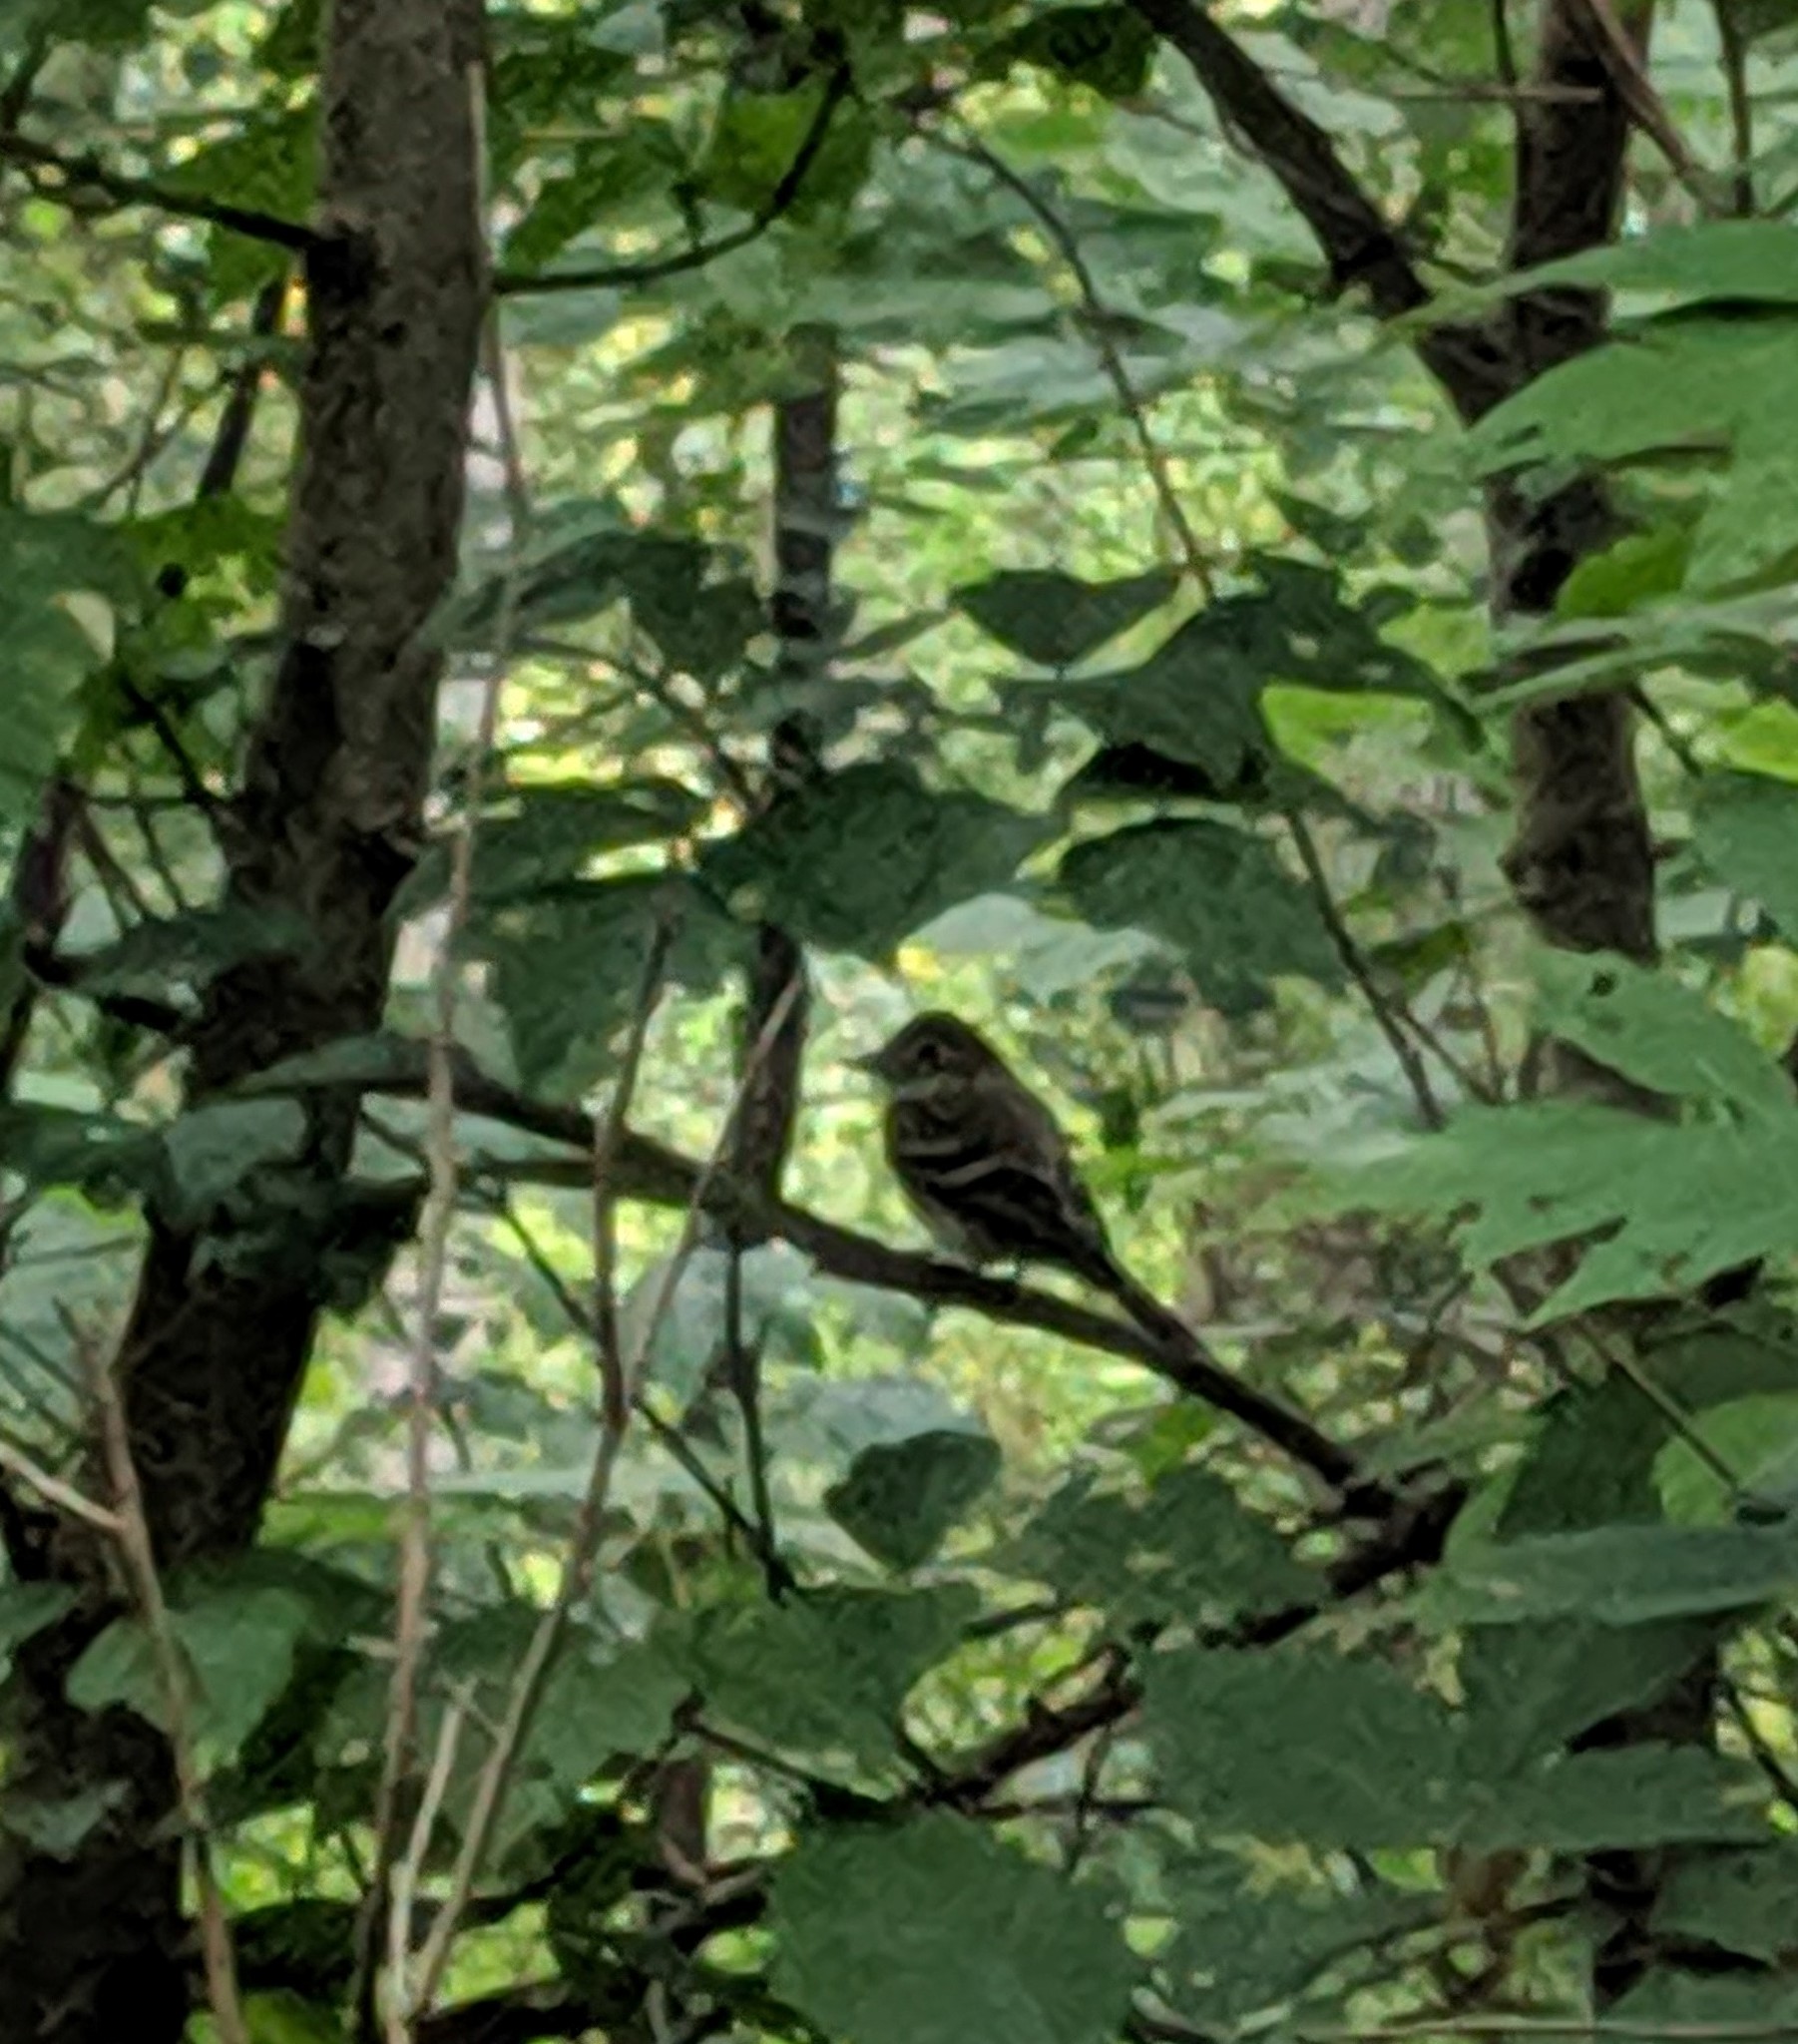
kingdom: Animalia
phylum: Chordata
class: Aves
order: Passeriformes
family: Tyrannidae
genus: Empidonax
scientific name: Empidonax
